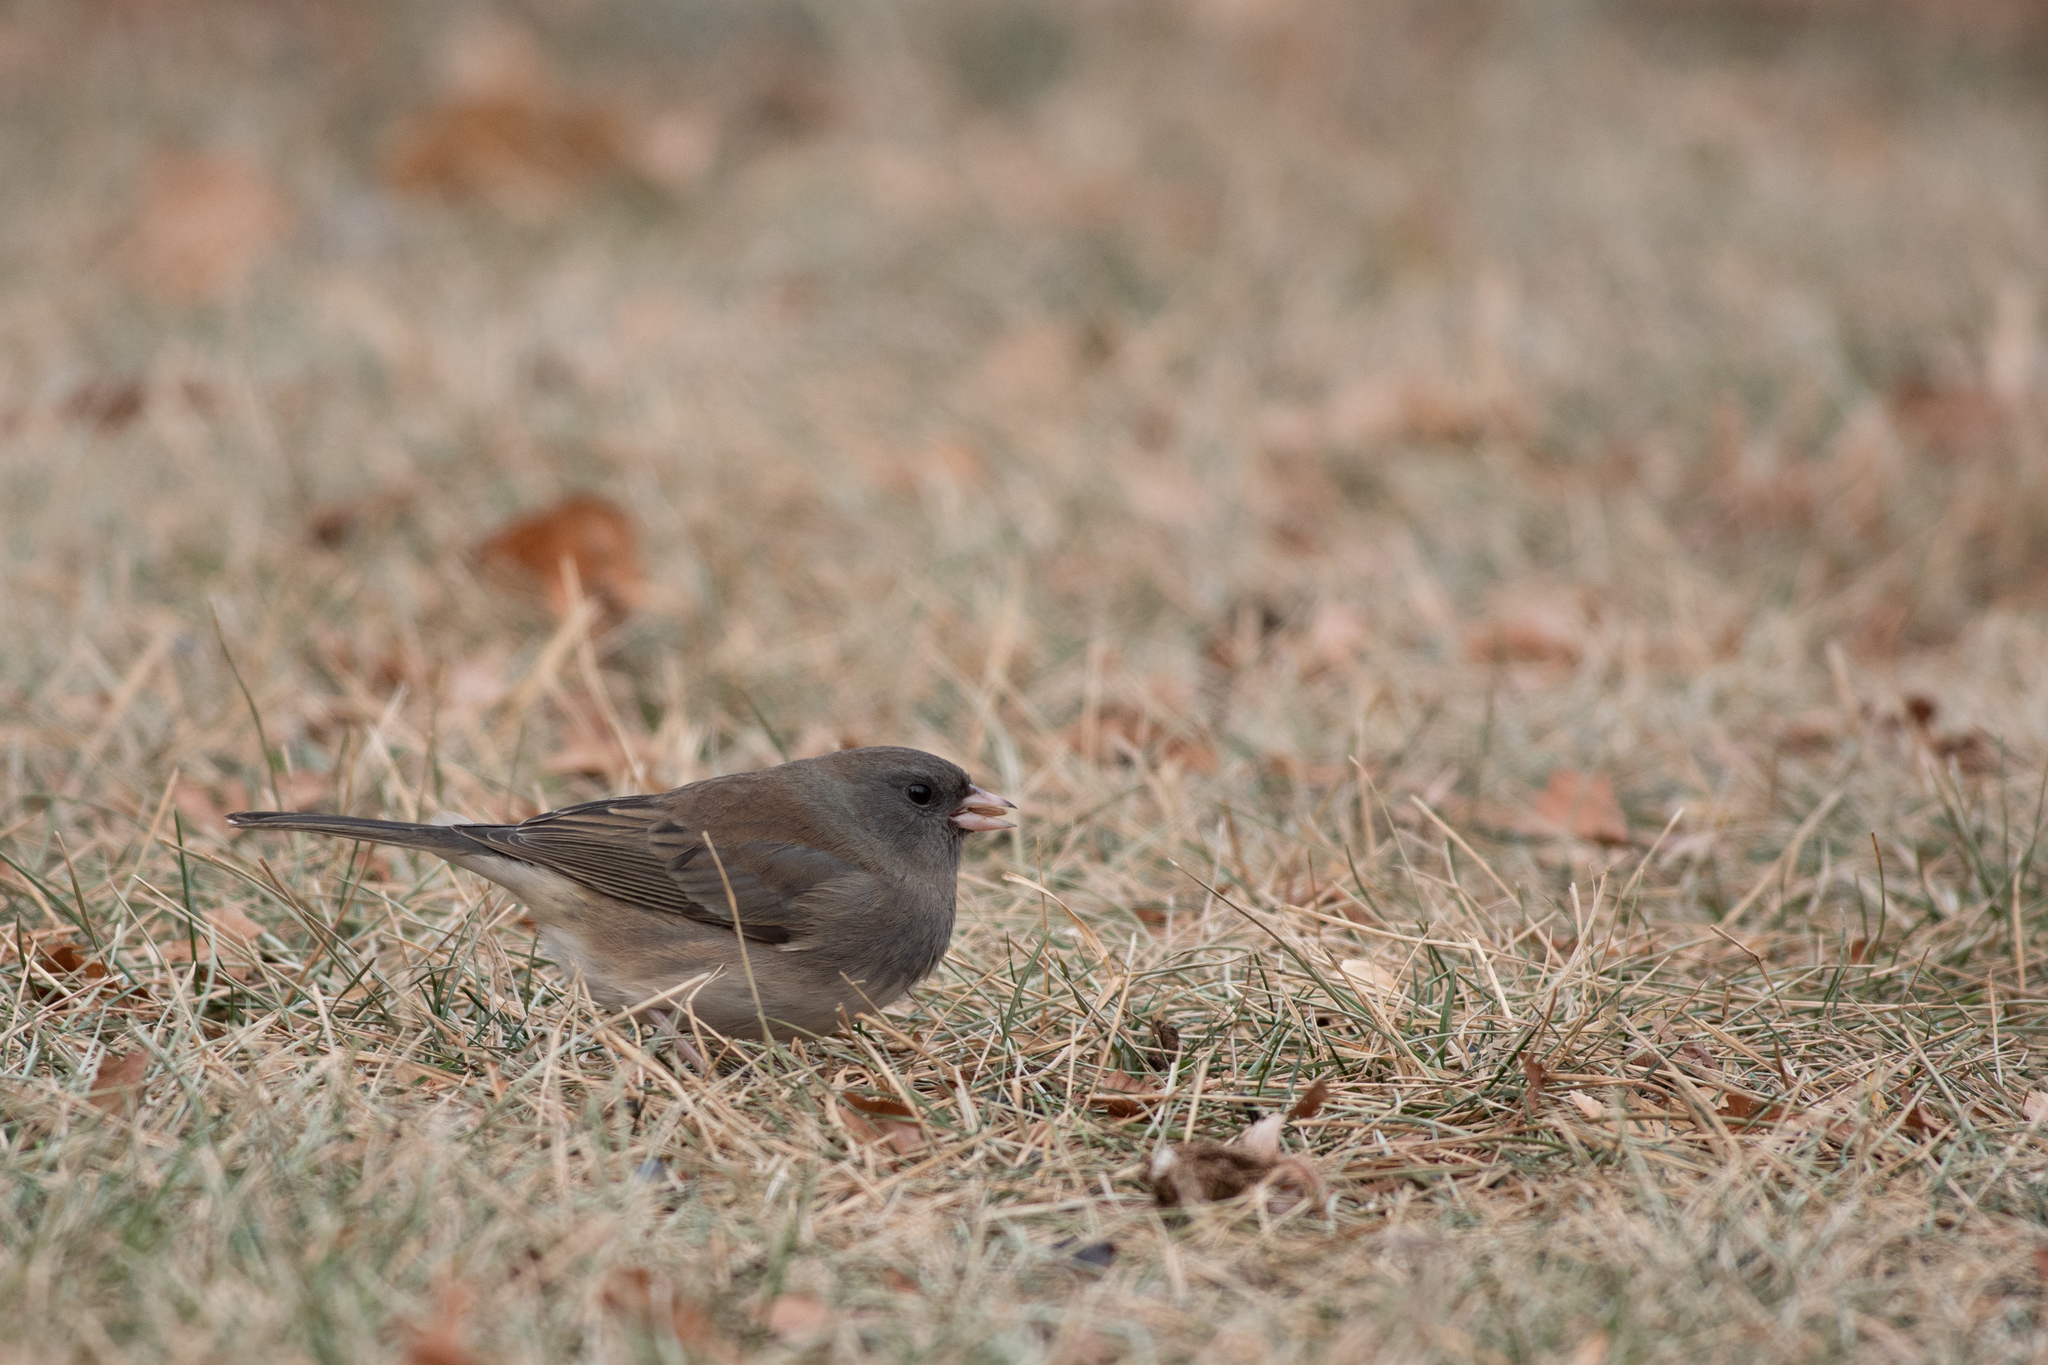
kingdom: Animalia
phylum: Chordata
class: Aves
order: Passeriformes
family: Passerellidae
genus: Junco
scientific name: Junco hyemalis
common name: Dark-eyed junco
